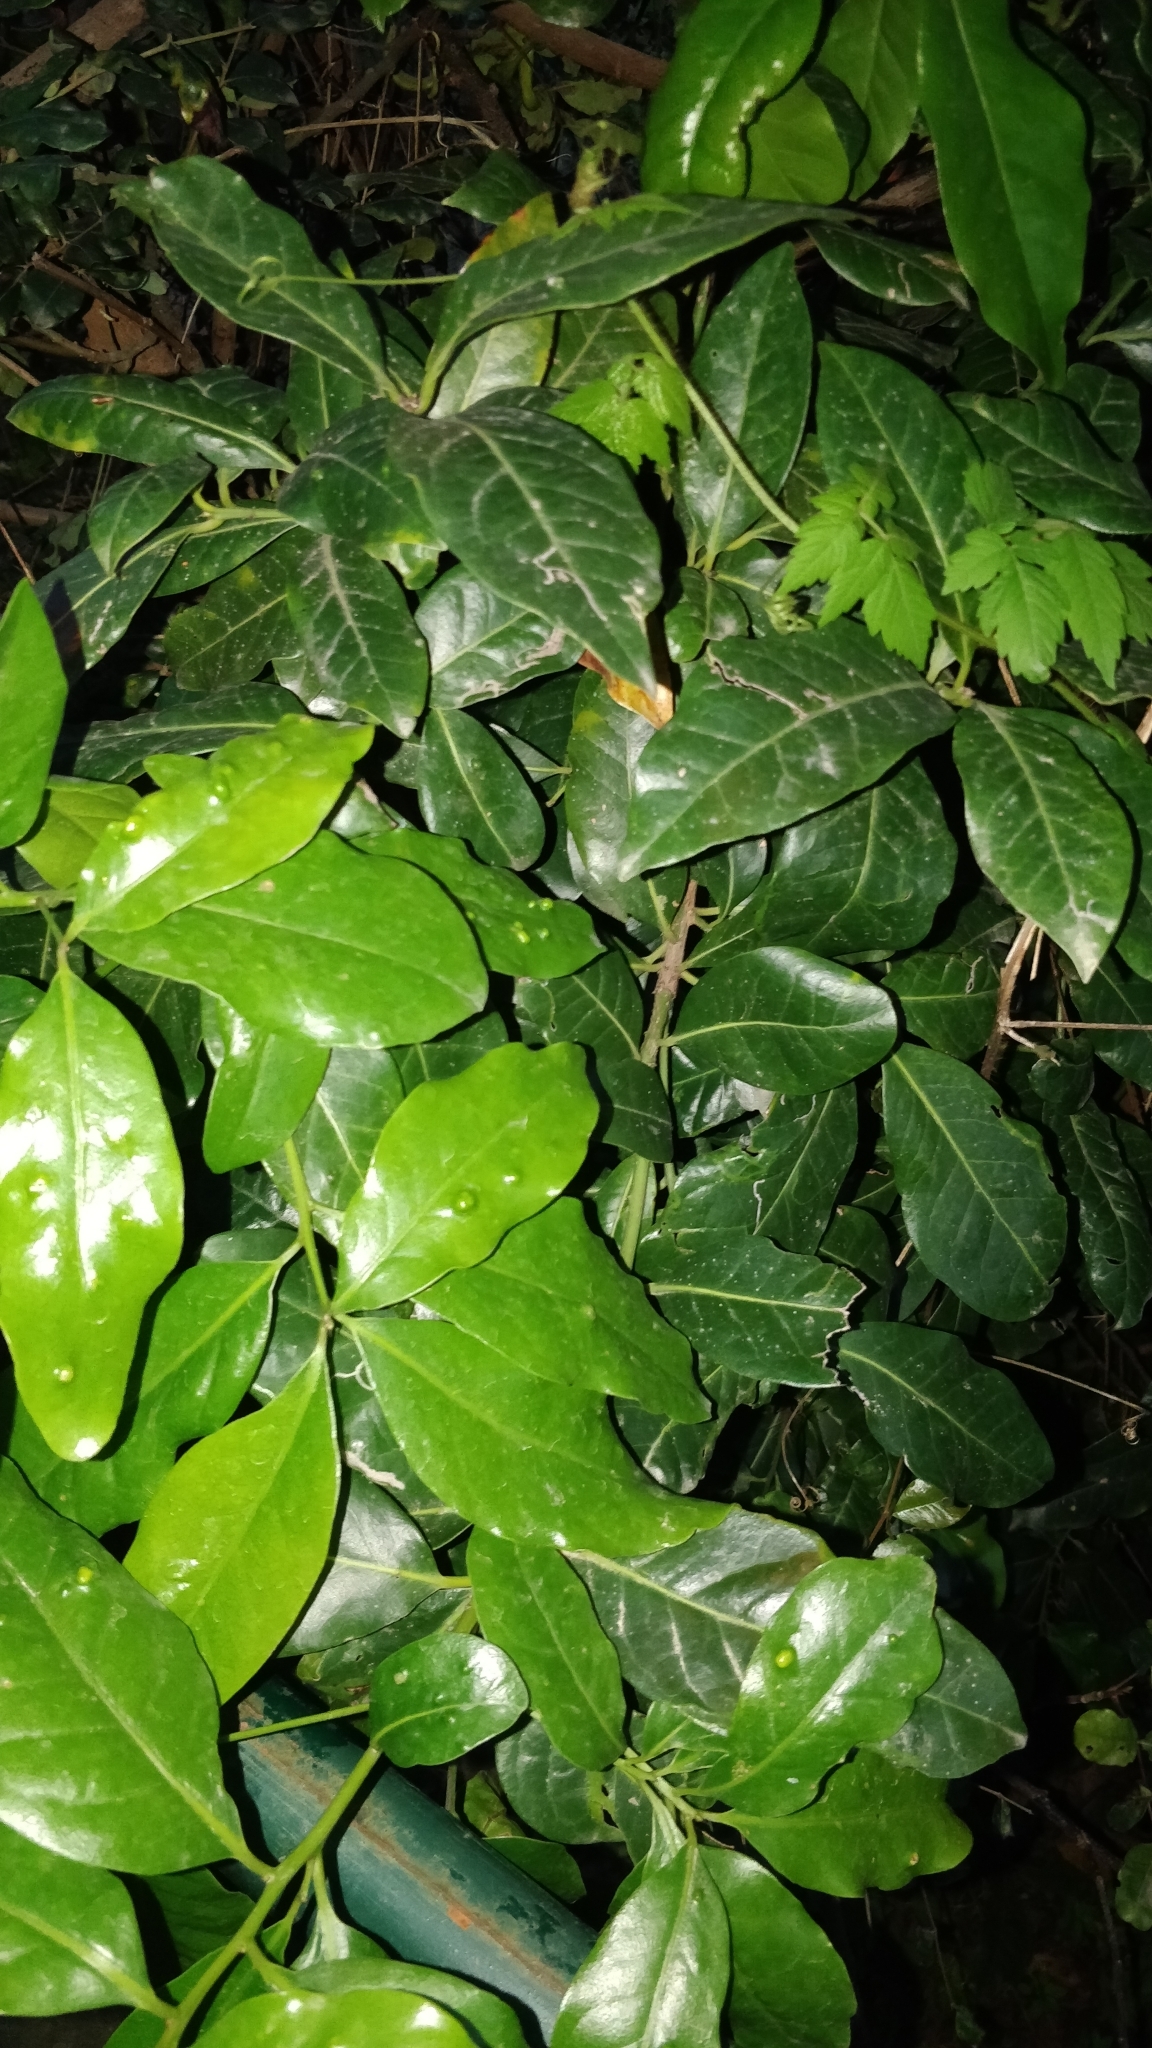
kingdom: Plantae
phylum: Tracheophyta
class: Magnoliopsida
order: Laurales
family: Lauraceae
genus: Apollonias
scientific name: Apollonias barbujana
